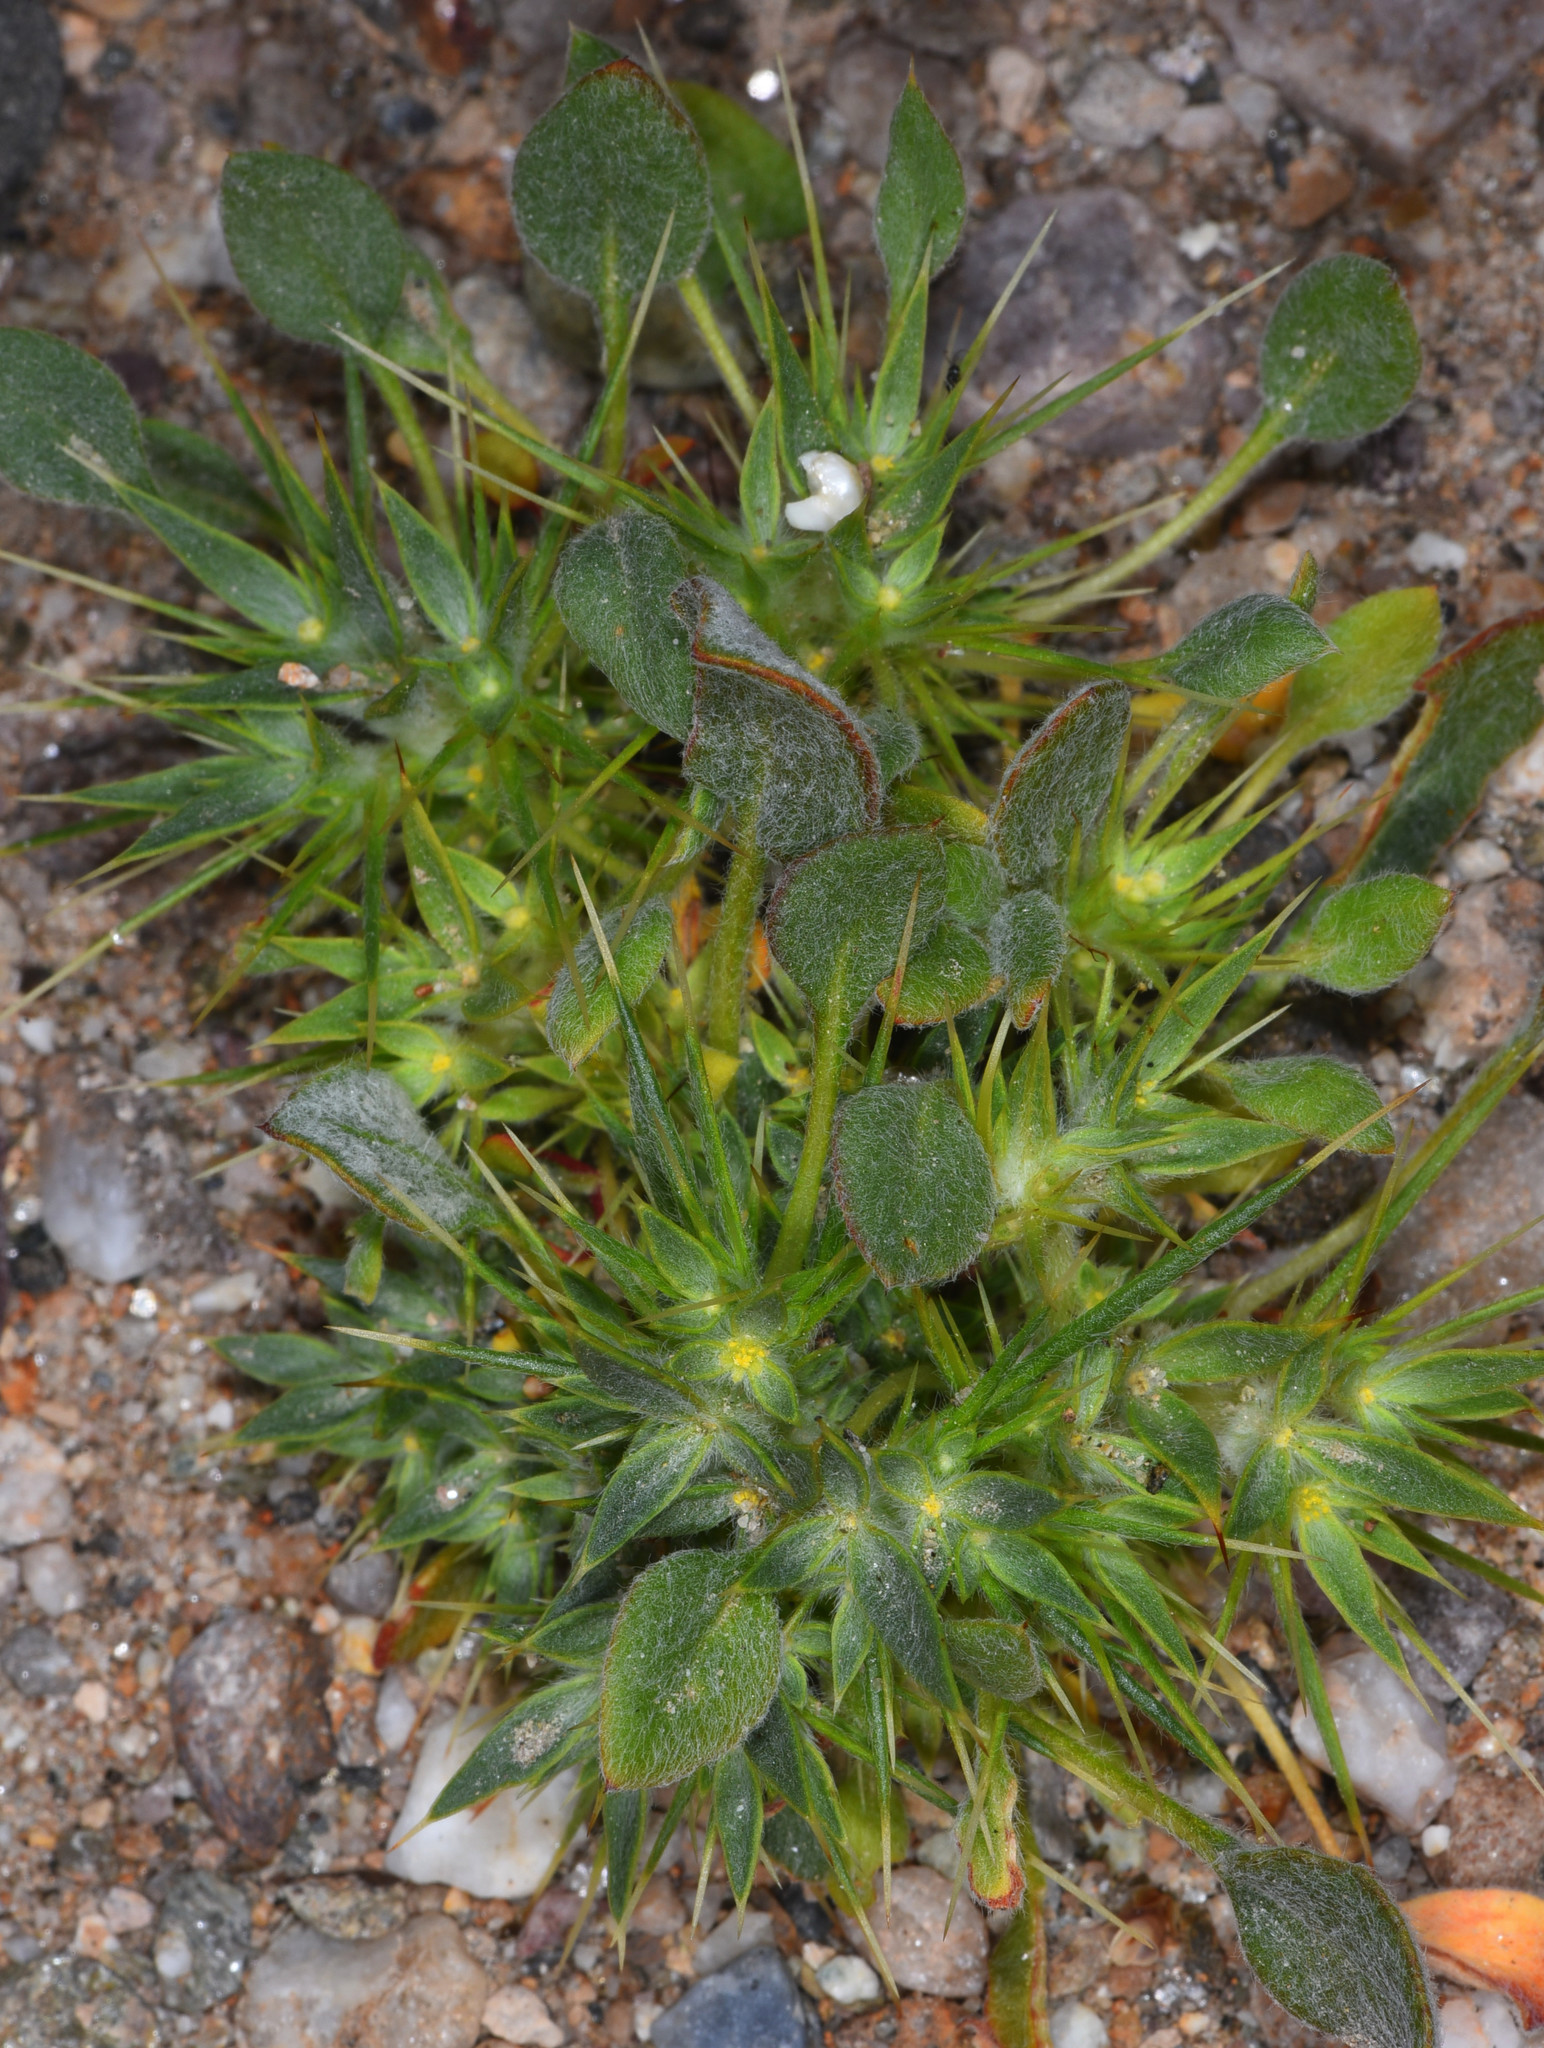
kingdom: Plantae
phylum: Tracheophyta
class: Magnoliopsida
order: Caryophyllales
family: Polygonaceae
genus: Chorizanthe
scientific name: Chorizanthe rigida
